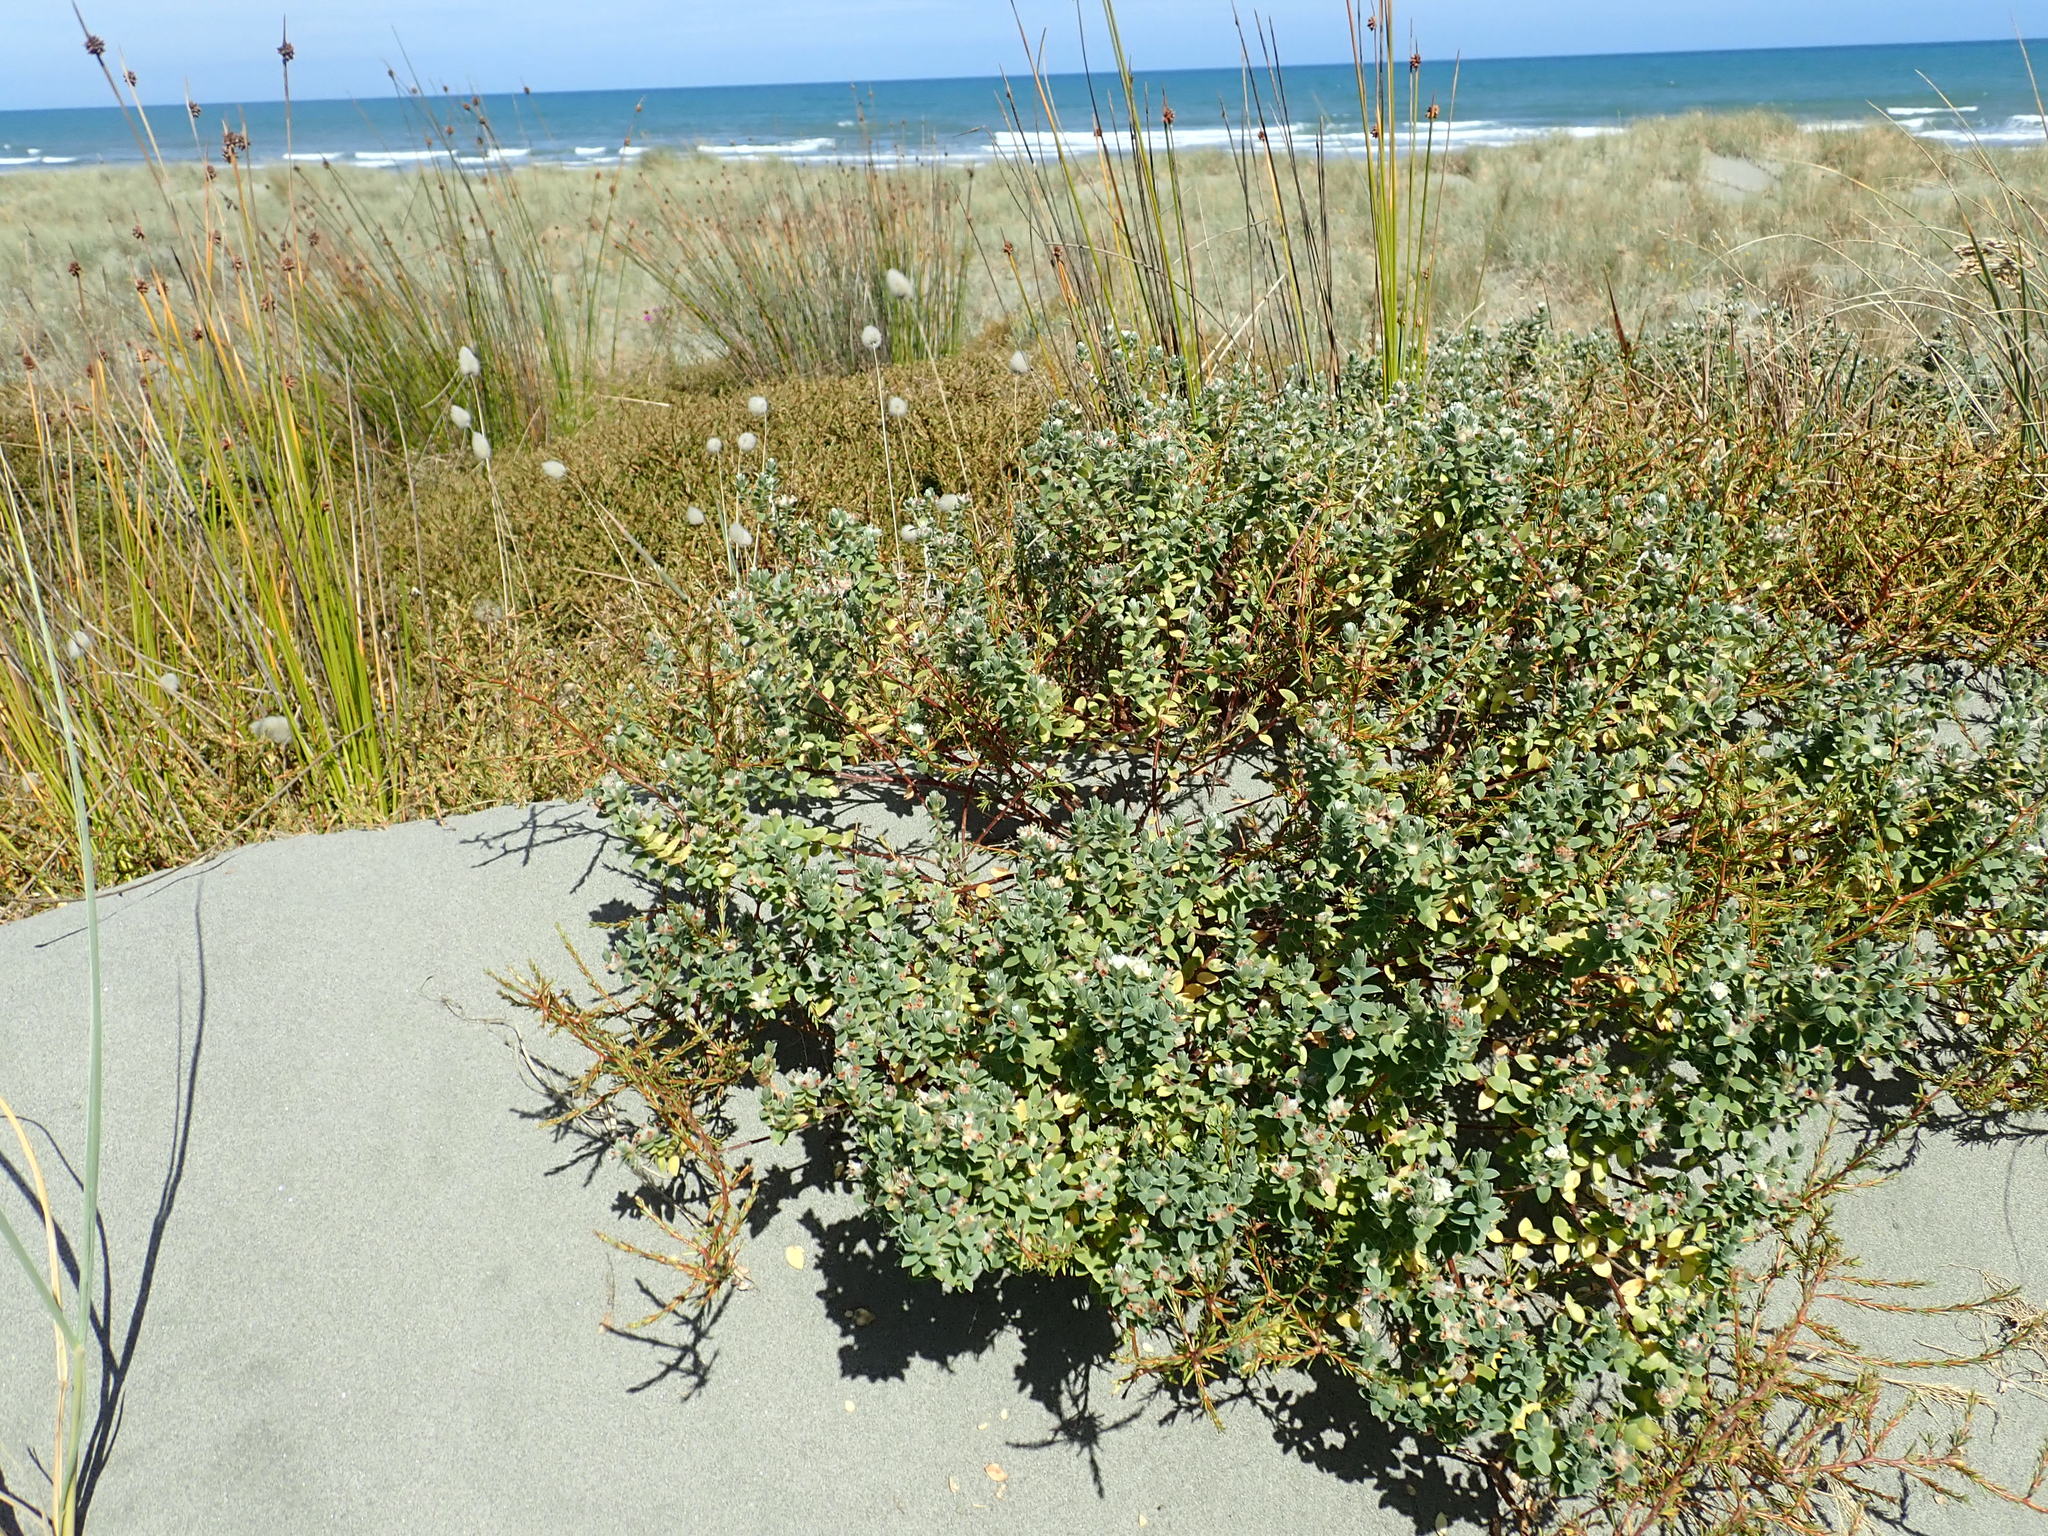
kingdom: Plantae
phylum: Tracheophyta
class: Magnoliopsida
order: Malvales
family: Thymelaeaceae
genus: Pimelea
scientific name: Pimelea villosa
